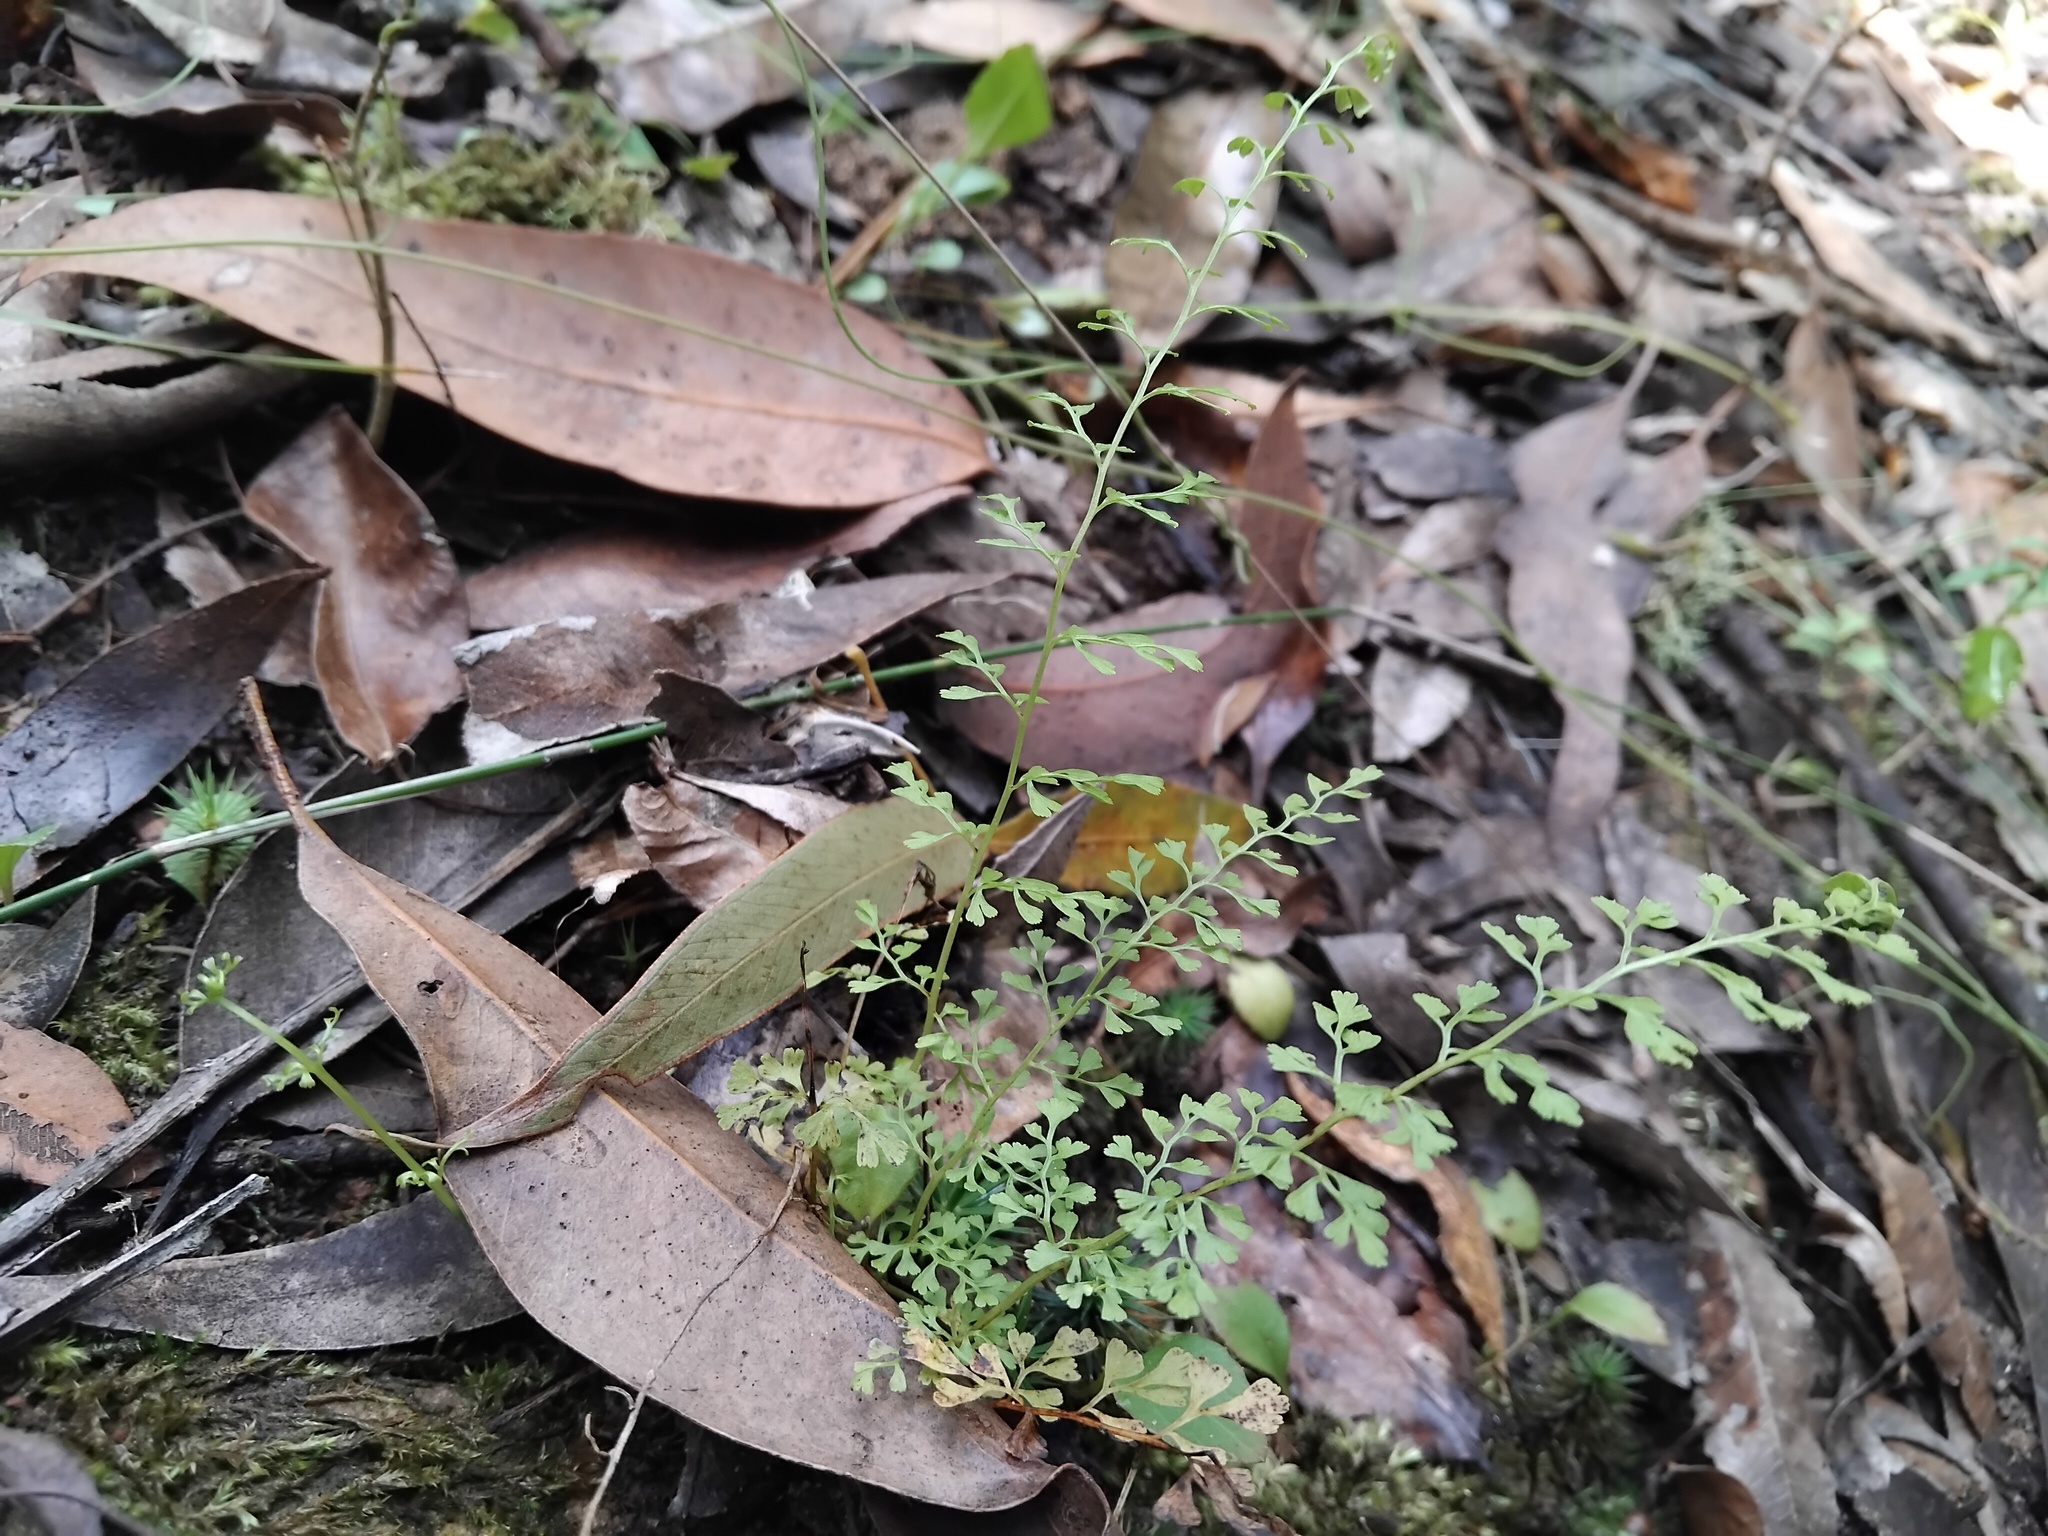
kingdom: Plantae
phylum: Tracheophyta
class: Polypodiopsida
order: Polypodiales
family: Lindsaeaceae
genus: Lindsaea
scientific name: Lindsaea microphylla
